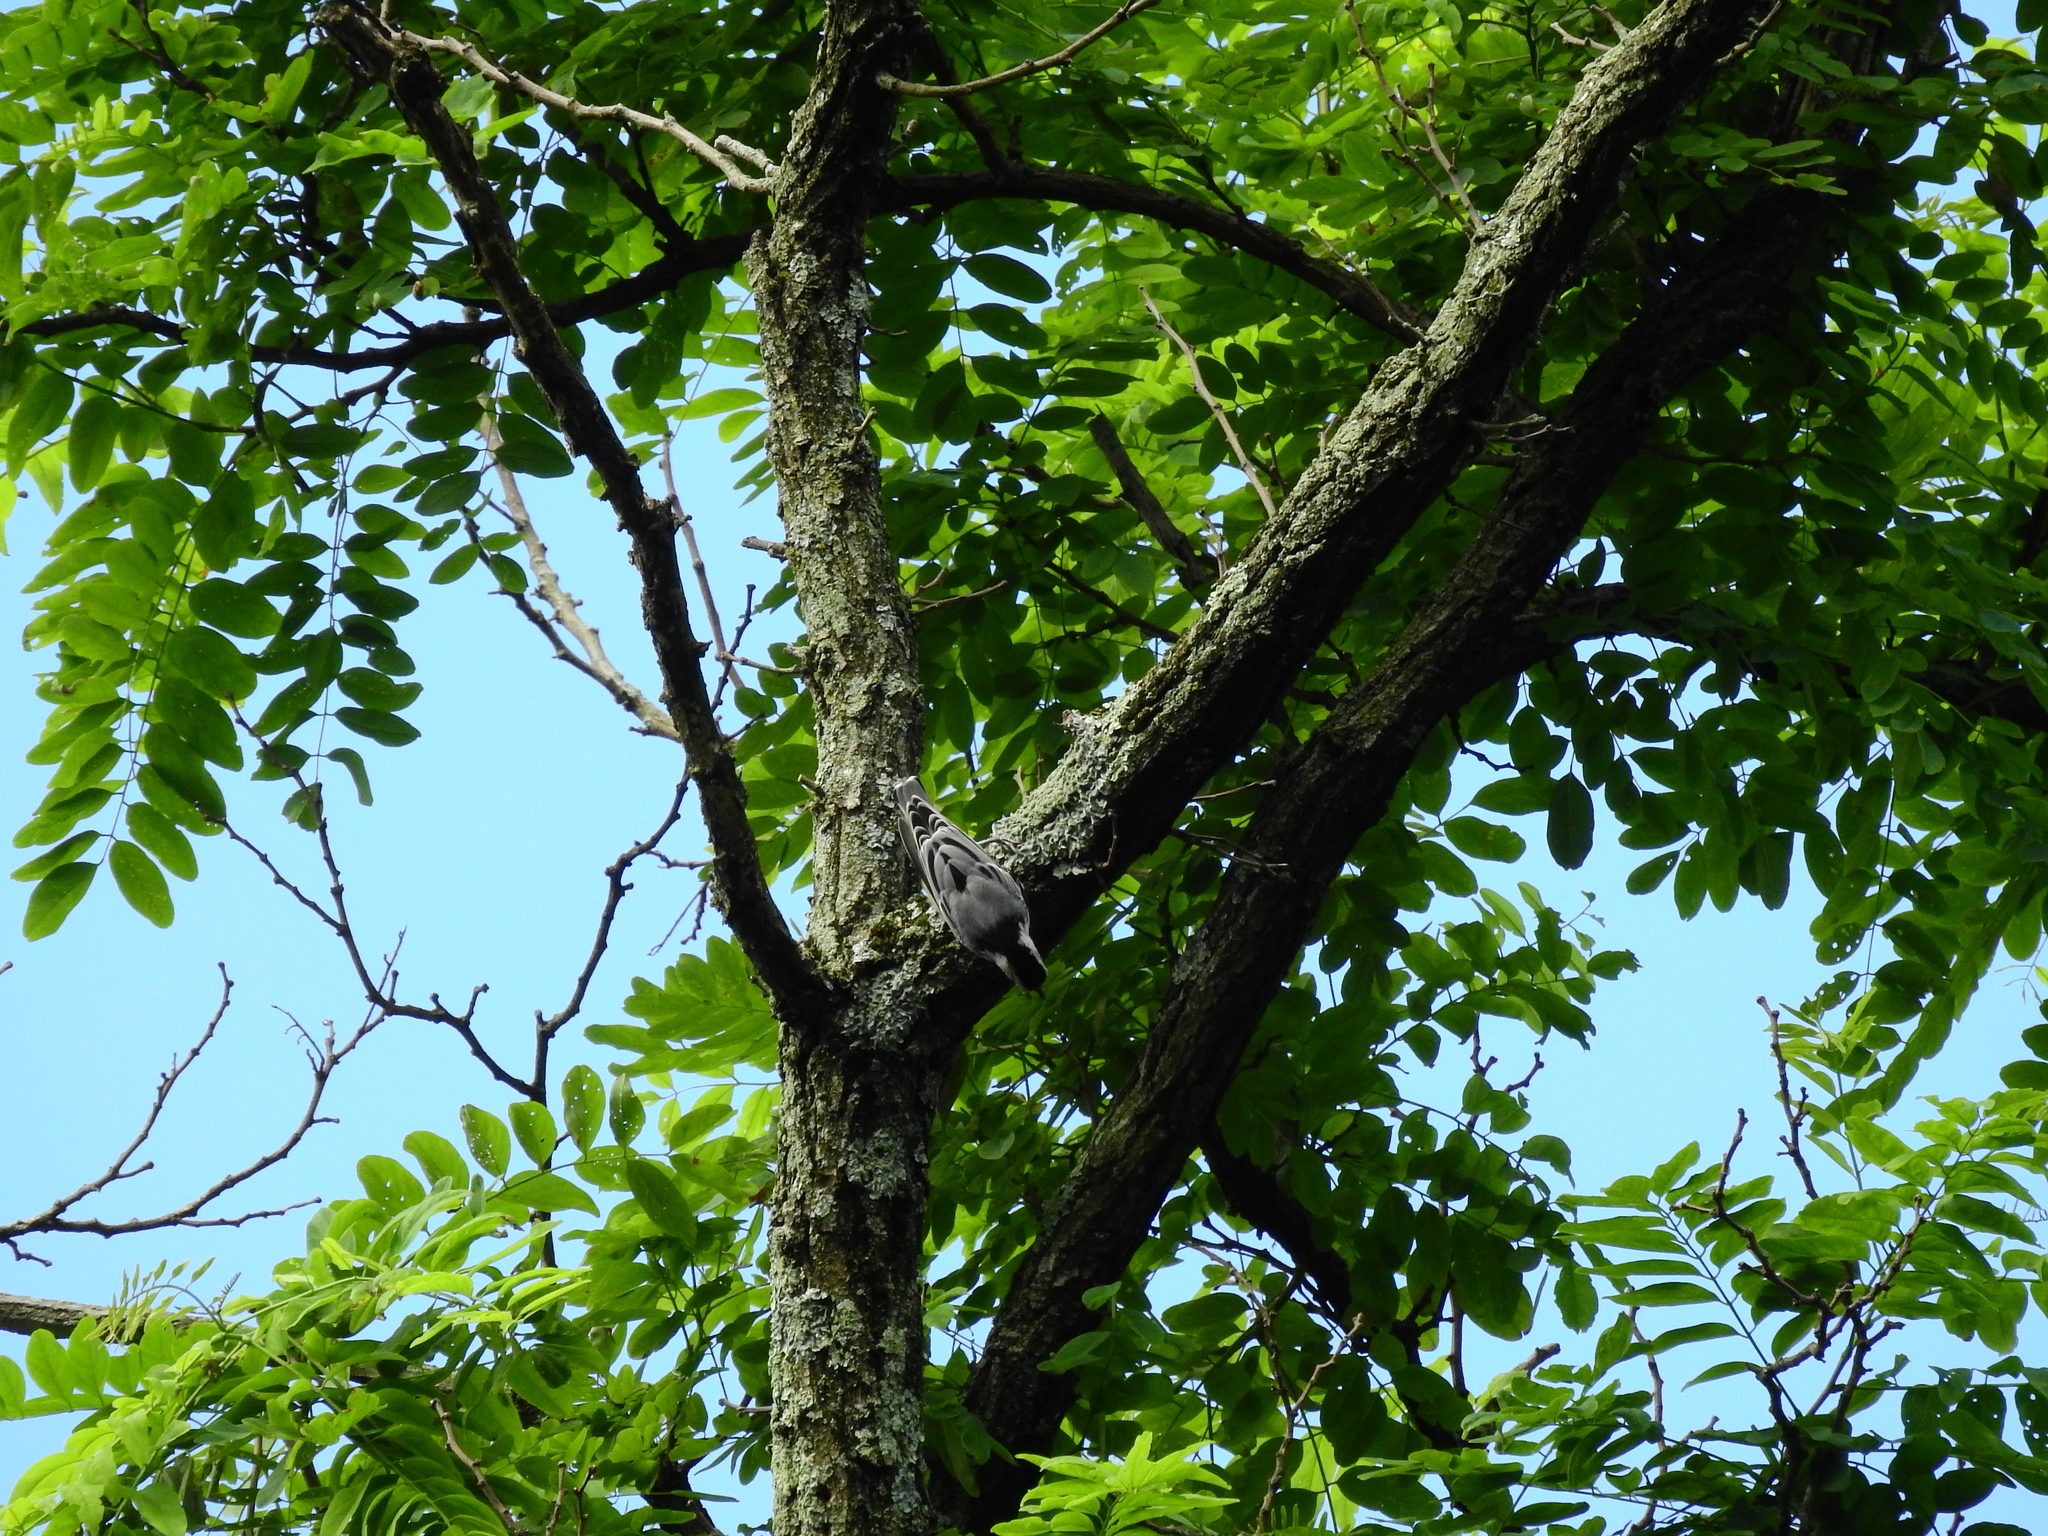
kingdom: Animalia
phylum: Chordata
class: Aves
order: Passeriformes
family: Sittidae
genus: Sitta
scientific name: Sitta carolinensis
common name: White-breasted nuthatch
